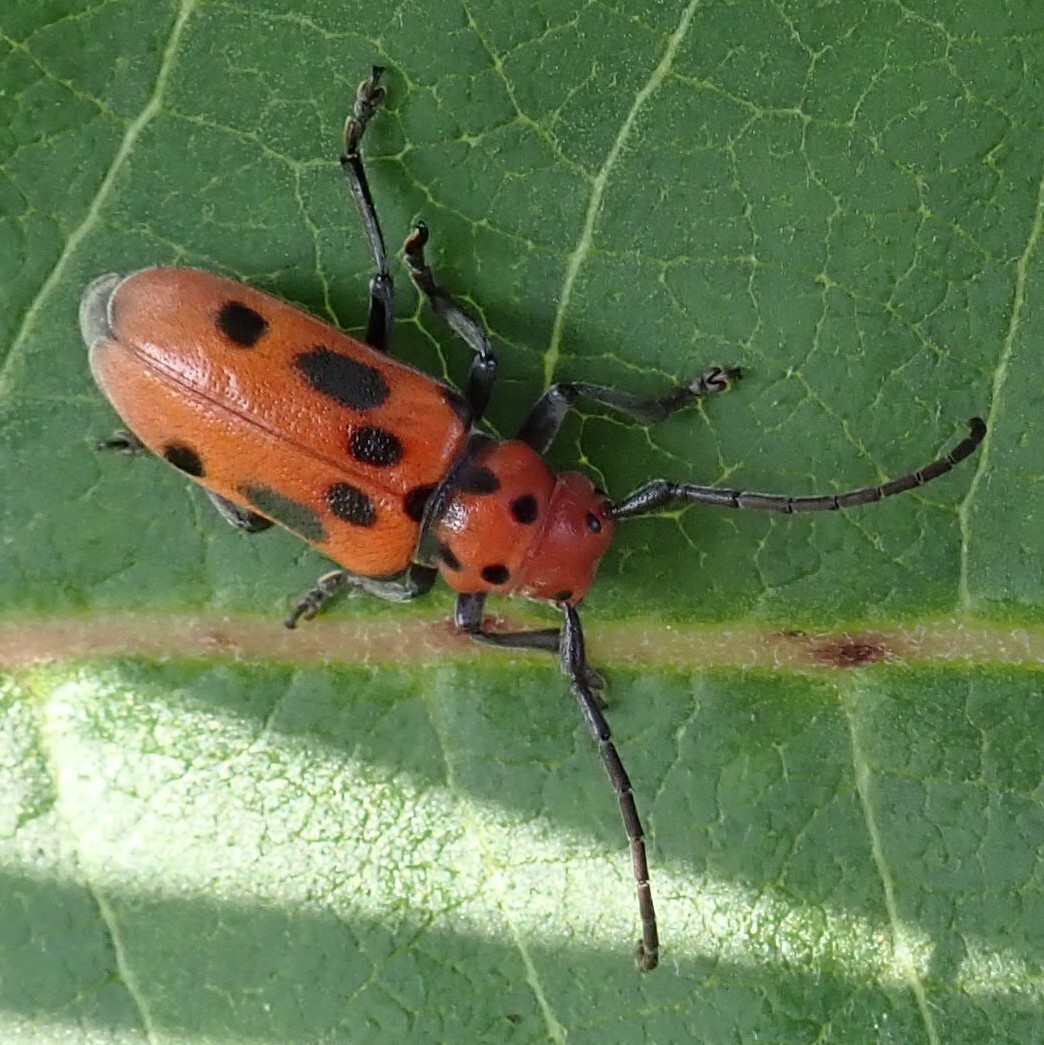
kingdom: Animalia
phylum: Arthropoda
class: Insecta
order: Coleoptera
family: Cerambycidae
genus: Tetraopes
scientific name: Tetraopes tetrophthalmus
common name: Red milkweed beetle
